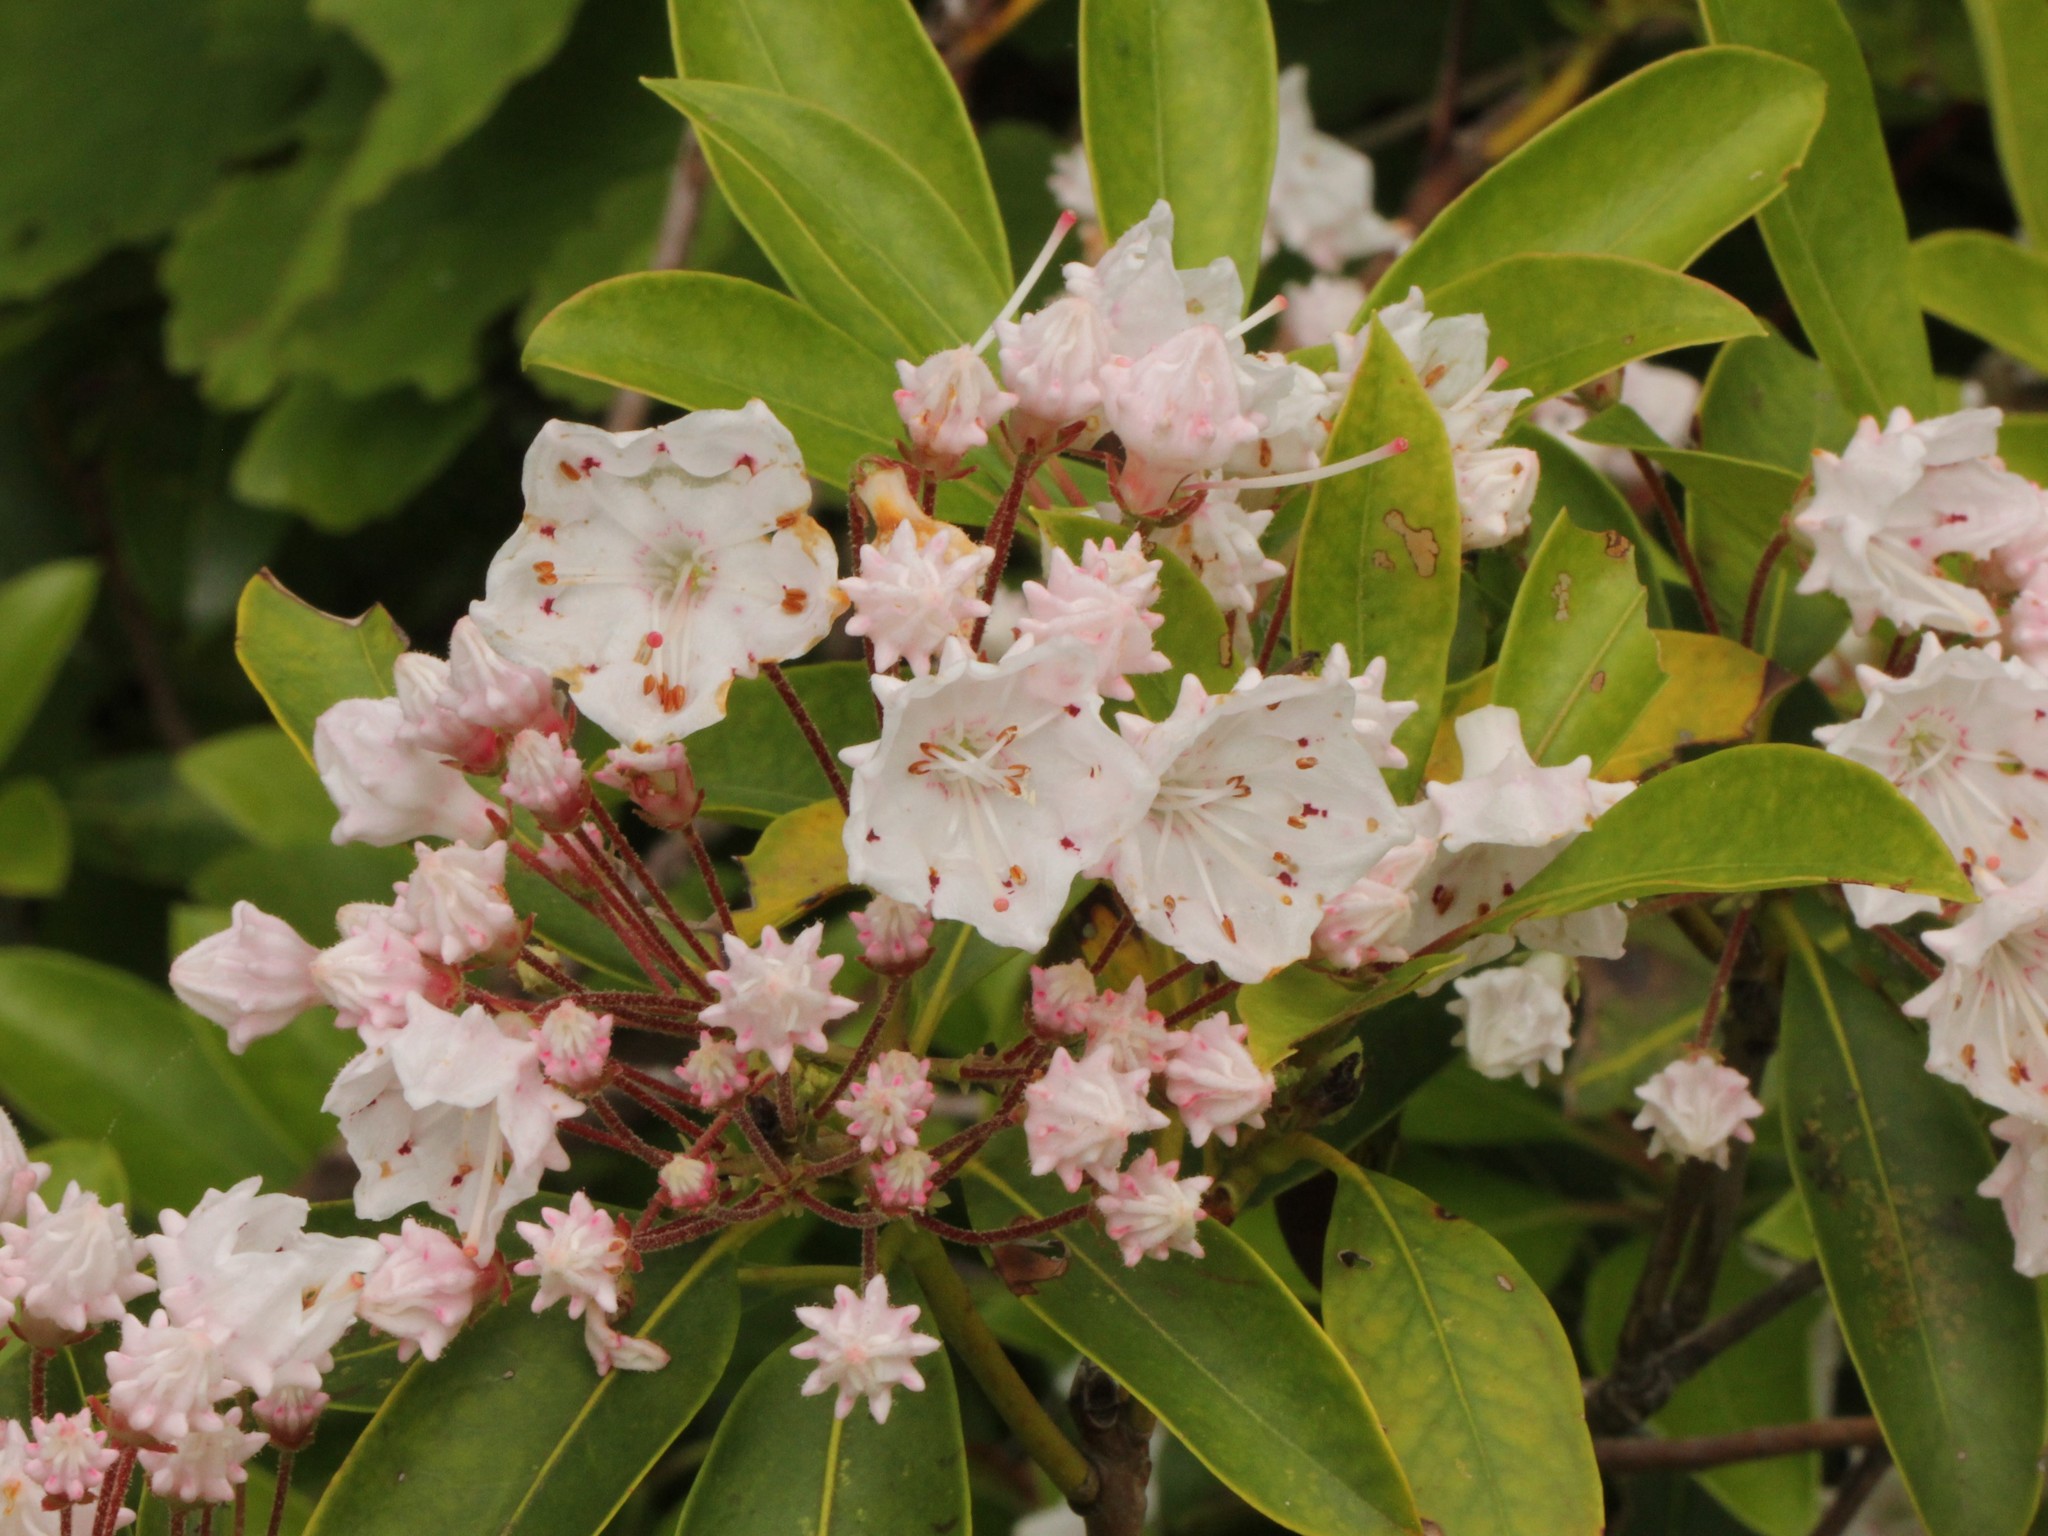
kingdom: Plantae
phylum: Tracheophyta
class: Magnoliopsida
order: Ericales
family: Ericaceae
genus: Kalmia
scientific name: Kalmia latifolia
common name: Mountain-laurel
